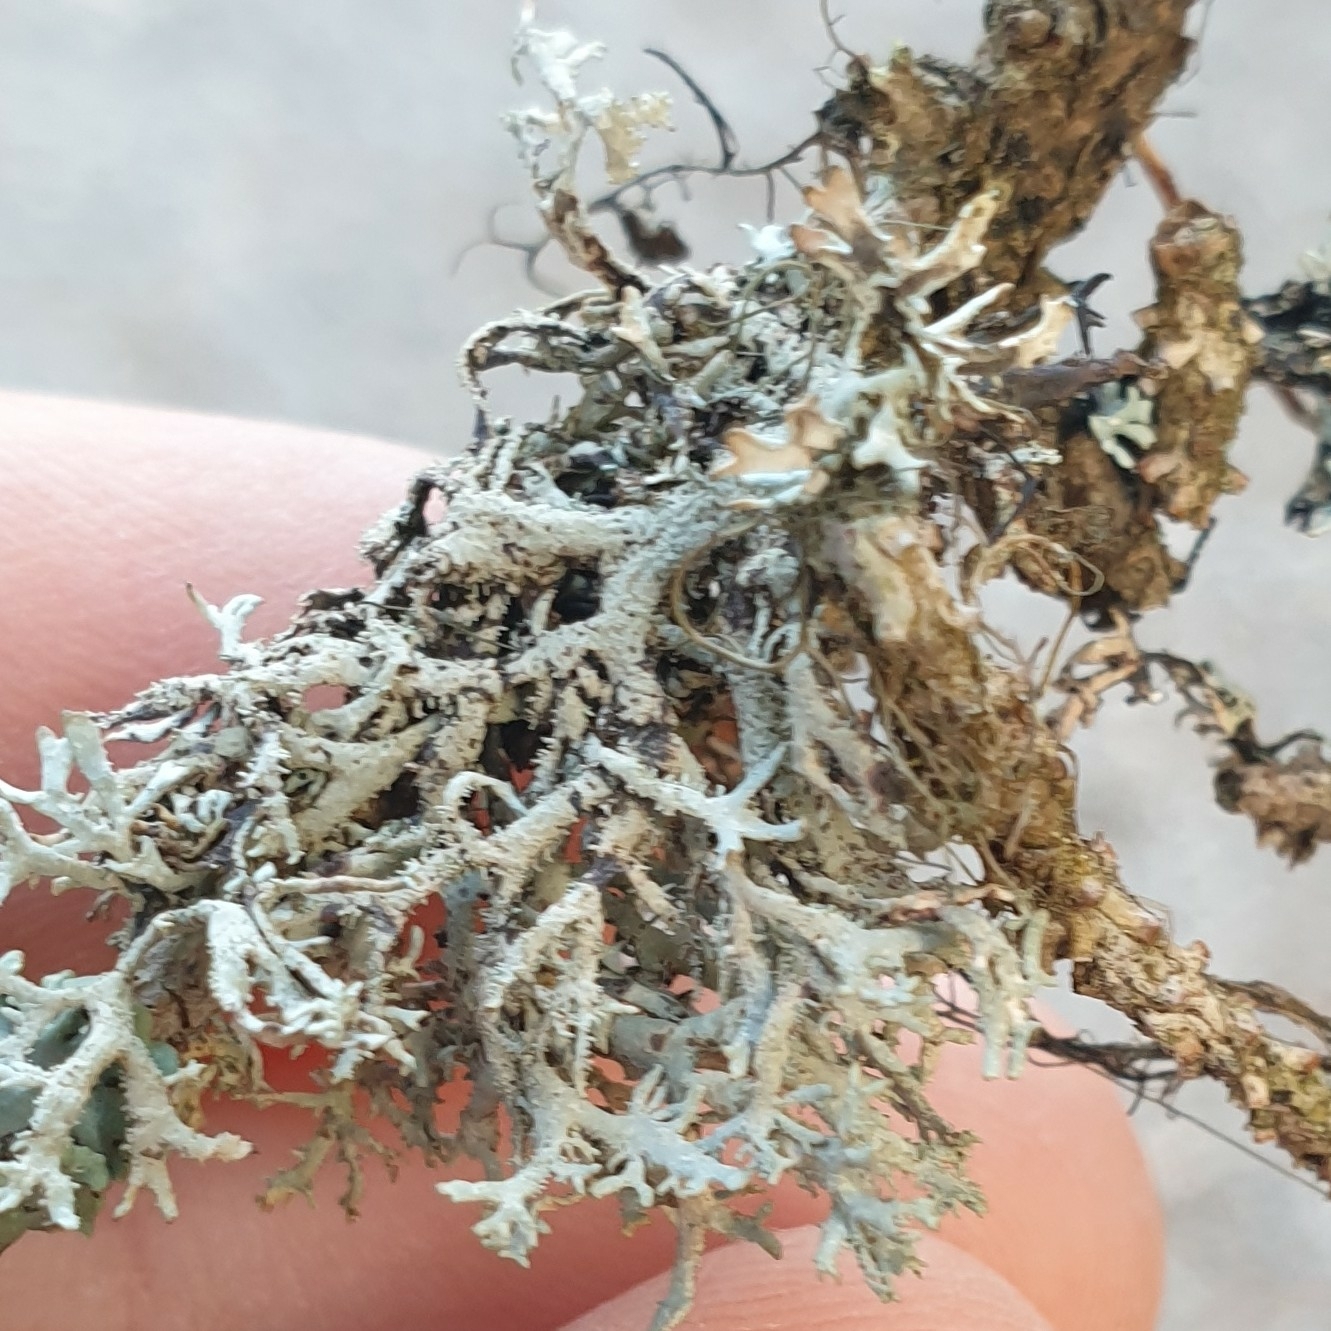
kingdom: Fungi
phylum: Ascomycota
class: Lecanoromycetes
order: Lecanorales
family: Parmeliaceae
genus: Pseudevernia
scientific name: Pseudevernia furfuracea
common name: Tree moss
